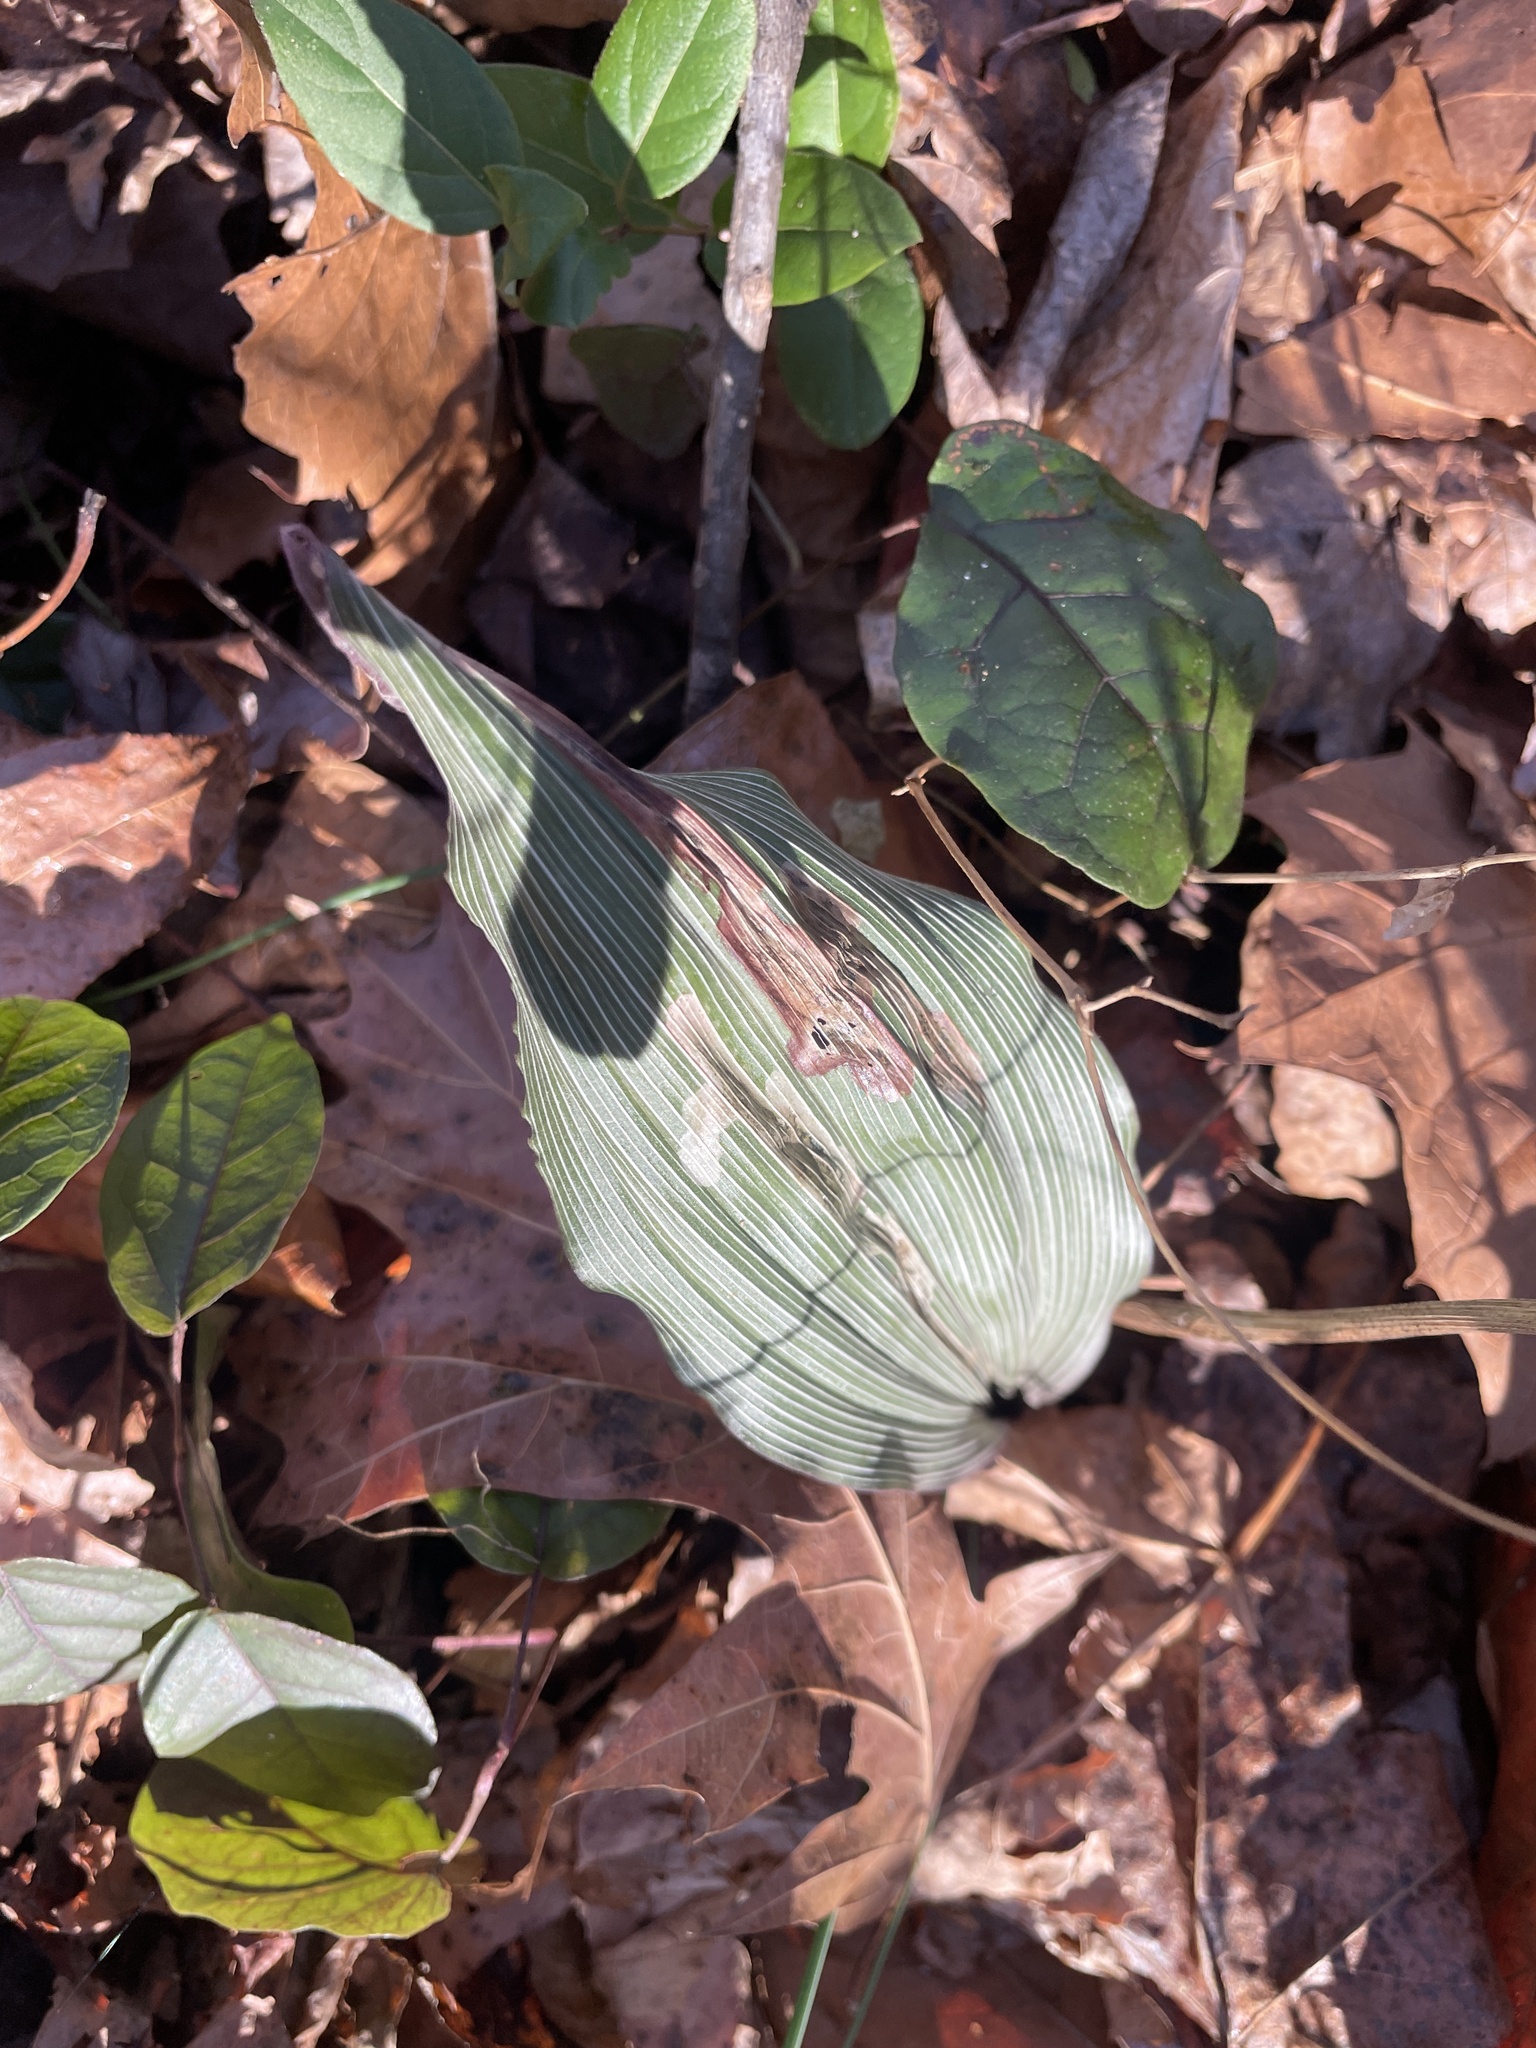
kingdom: Plantae
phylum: Tracheophyta
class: Liliopsida
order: Asparagales
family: Orchidaceae
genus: Aplectrum
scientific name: Aplectrum hyemale
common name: Adam-and-eve
